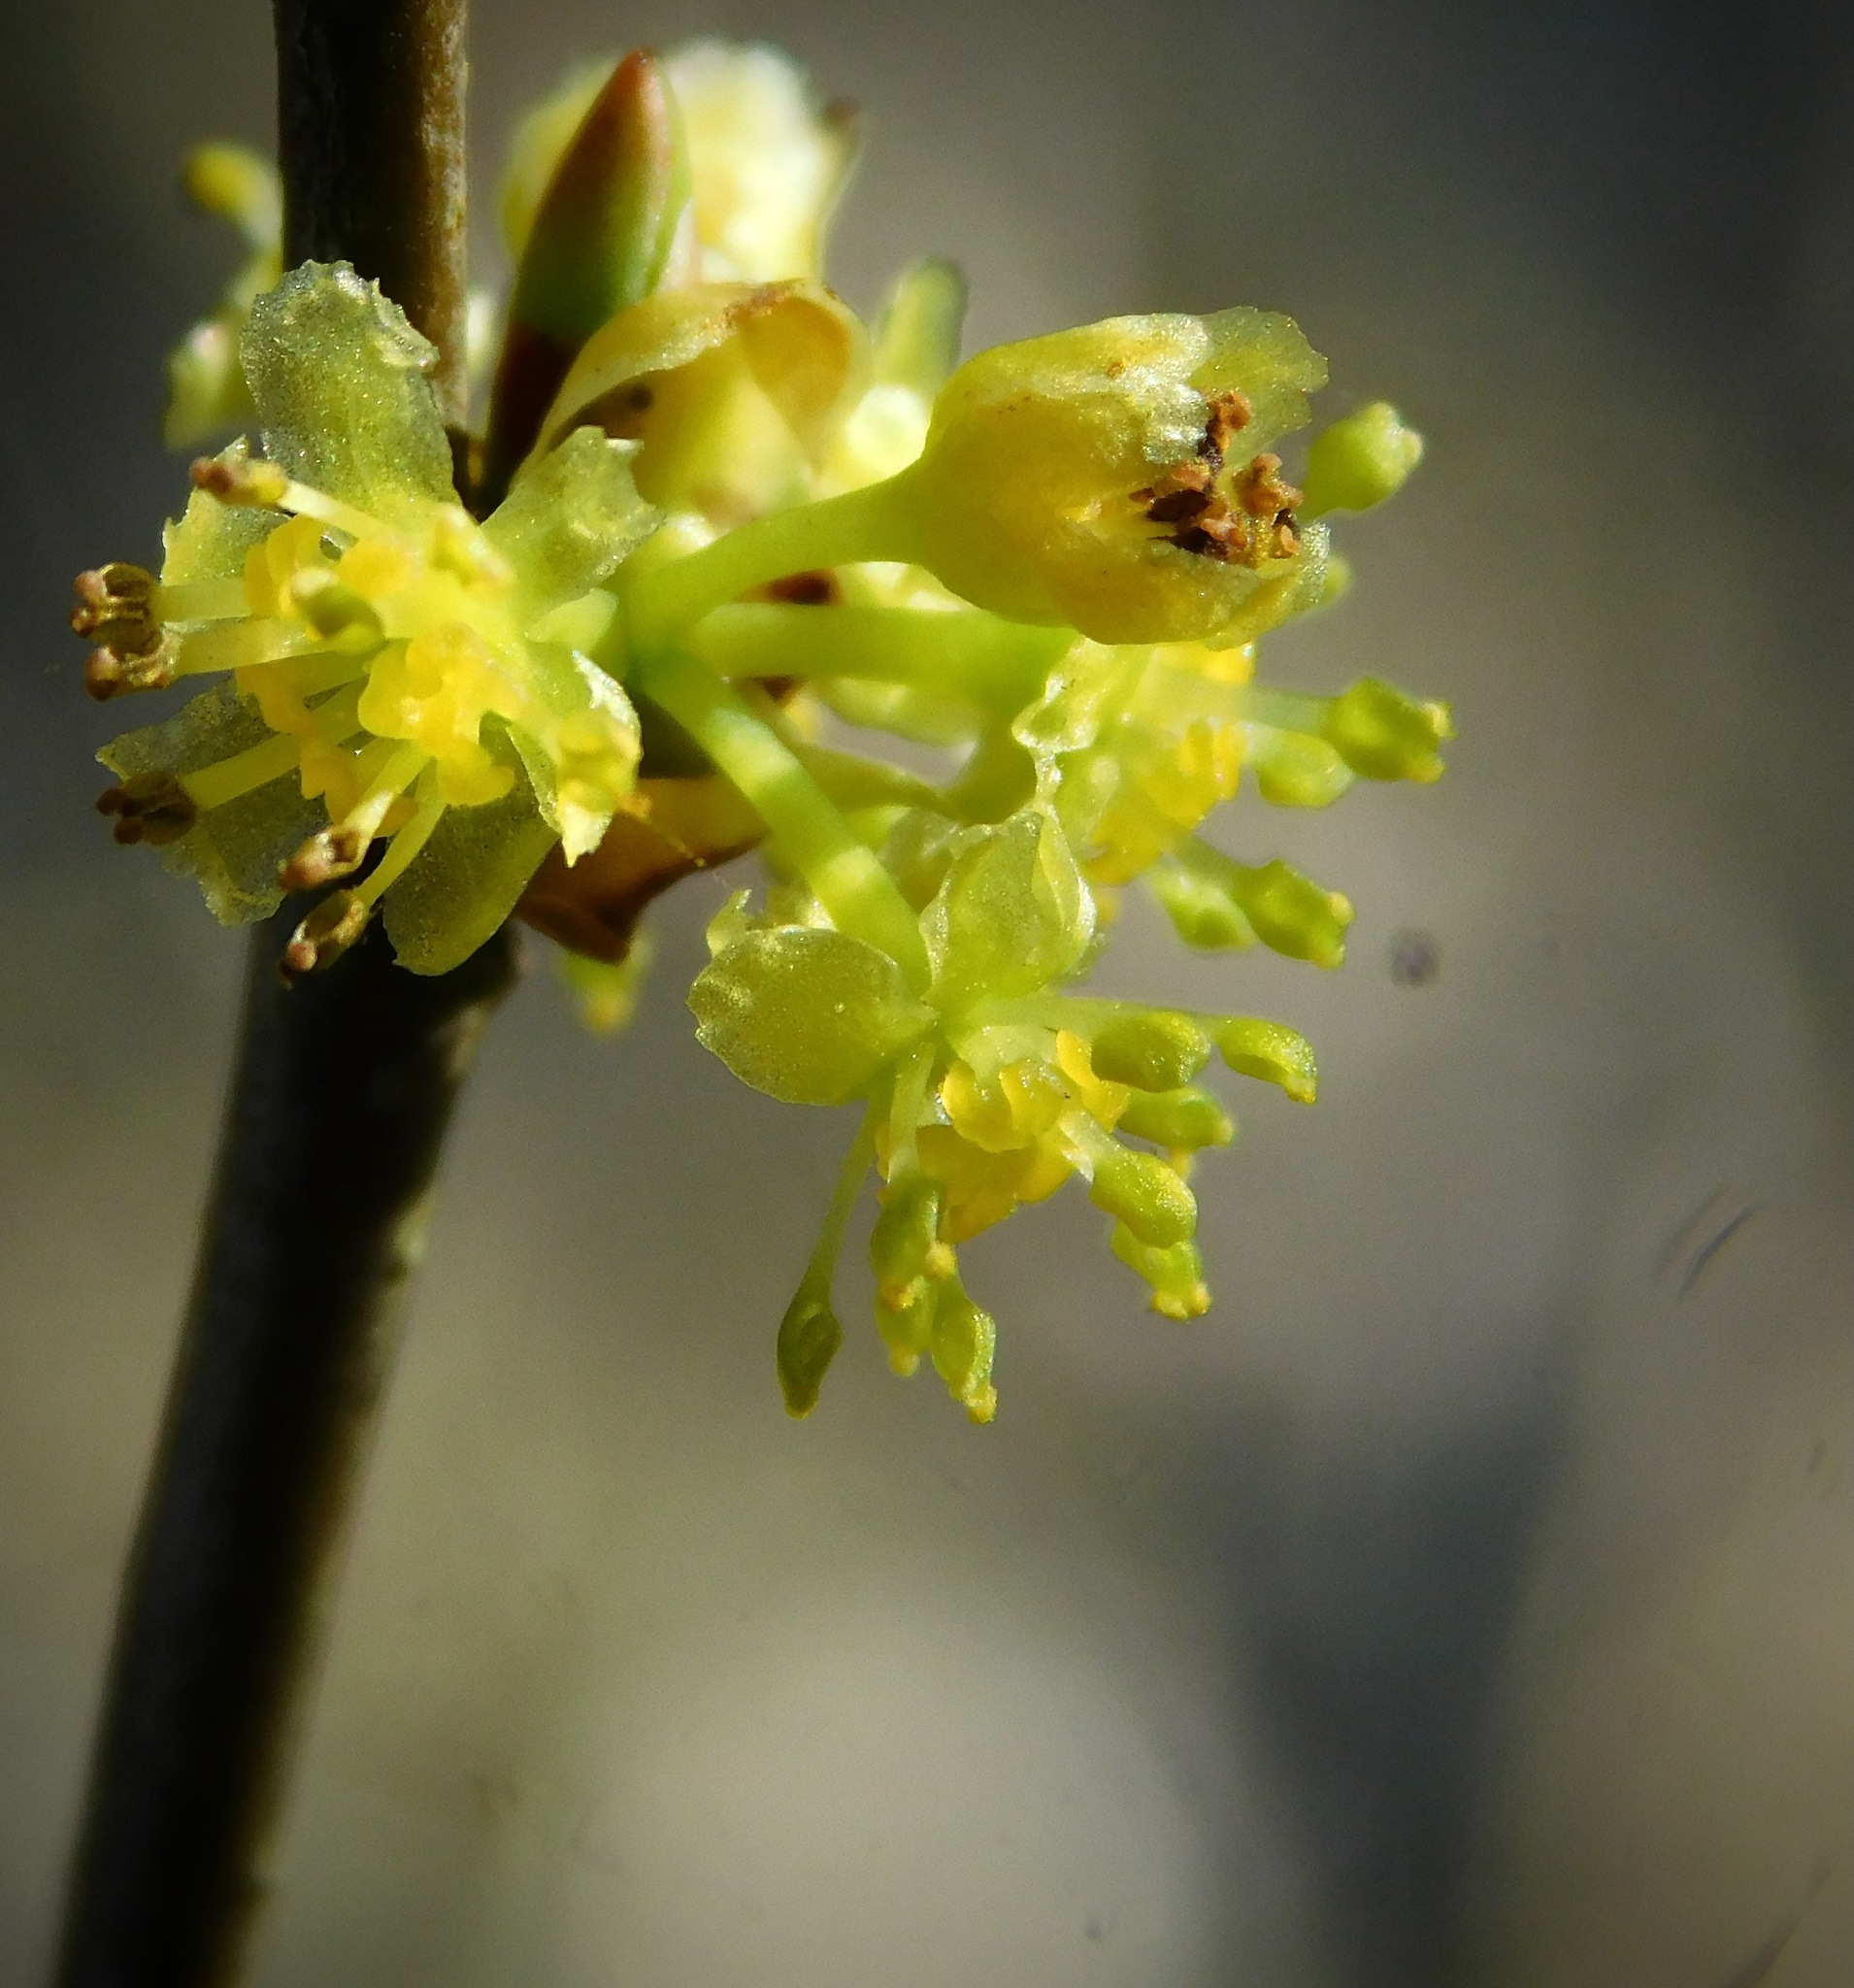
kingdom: Plantae
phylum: Tracheophyta
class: Magnoliopsida
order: Laurales
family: Lauraceae
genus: Lindera
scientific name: Lindera benzoin
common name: Spicebush
